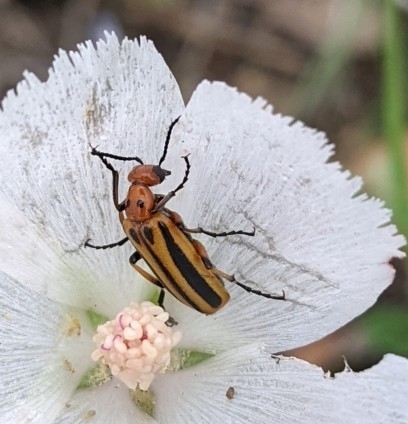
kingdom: Animalia
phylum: Arthropoda
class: Insecta
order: Coleoptera
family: Meloidae
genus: Pyrota
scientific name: Pyrota discoidea
